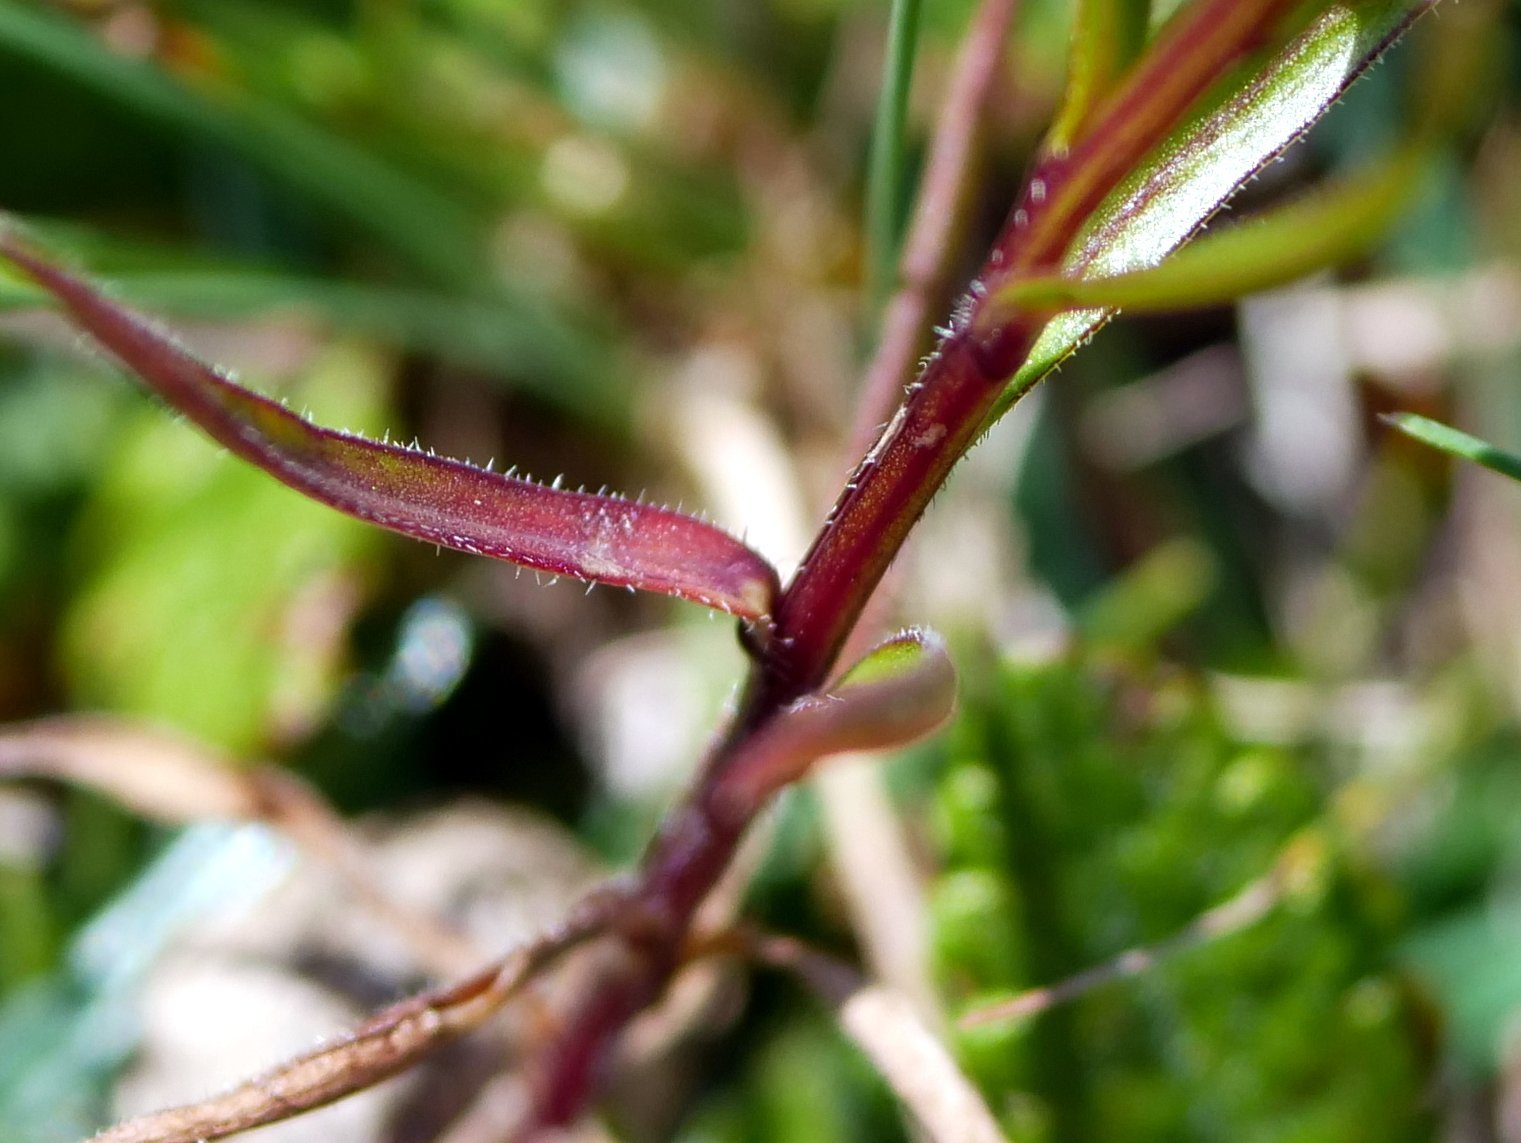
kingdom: Plantae
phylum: Tracheophyta
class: Magnoliopsida
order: Asterales
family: Campanulaceae
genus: Campanula
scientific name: Campanula scheuchzeri
